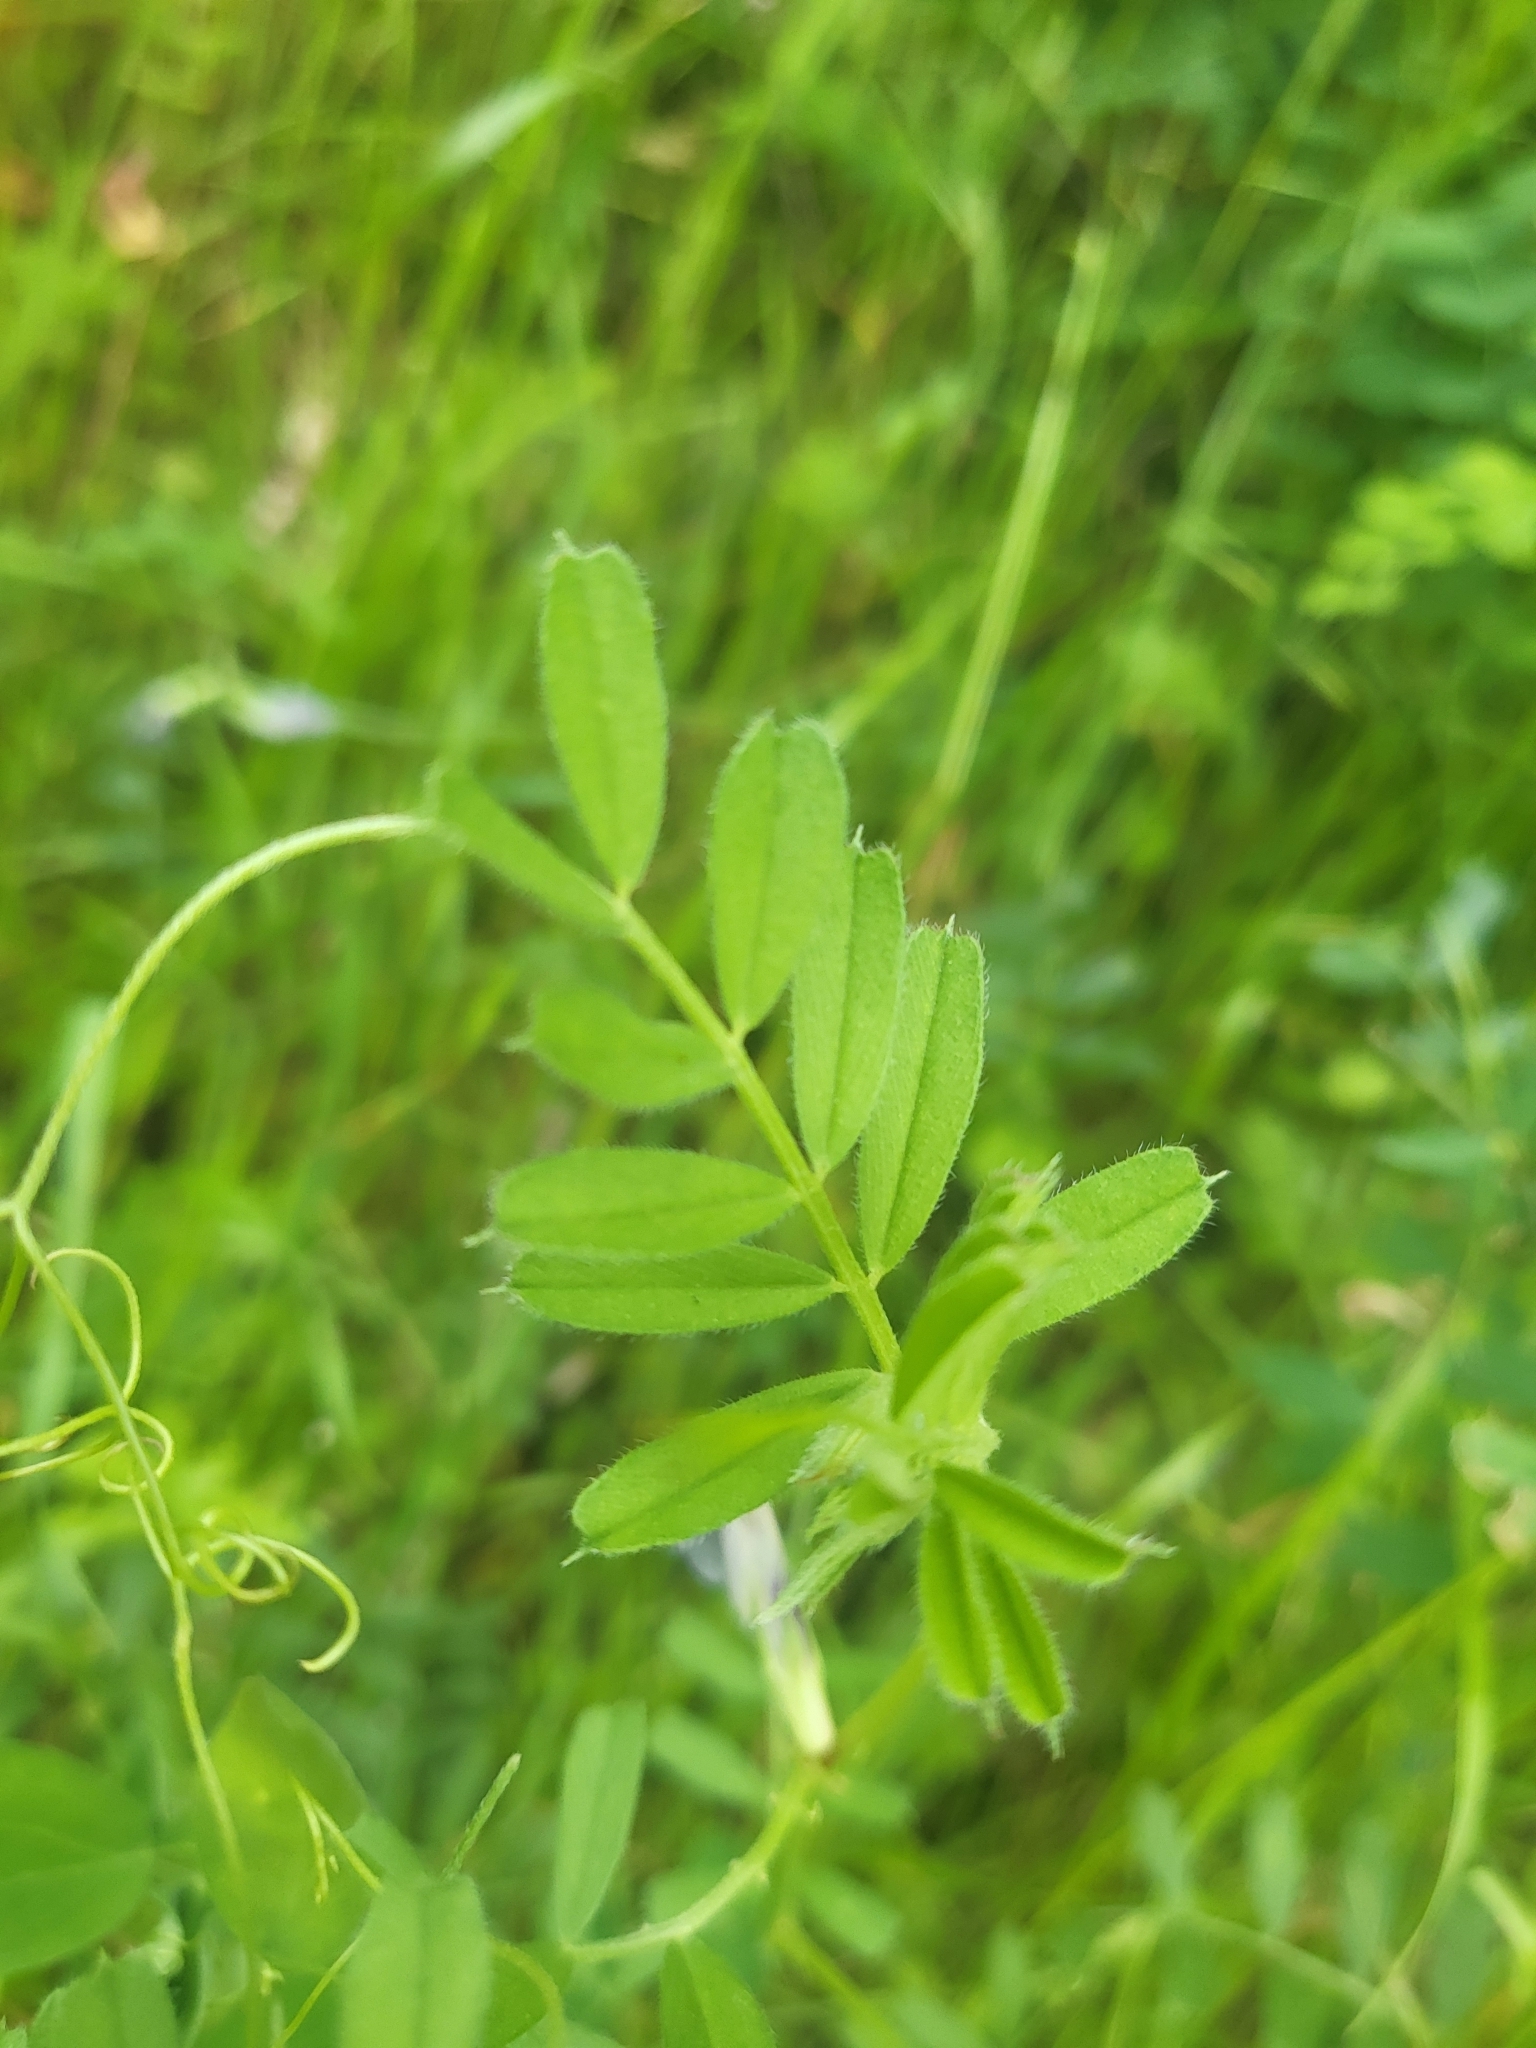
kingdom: Plantae
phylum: Tracheophyta
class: Magnoliopsida
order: Fabales
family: Fabaceae
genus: Vicia
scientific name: Vicia sativa
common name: Garden vetch
